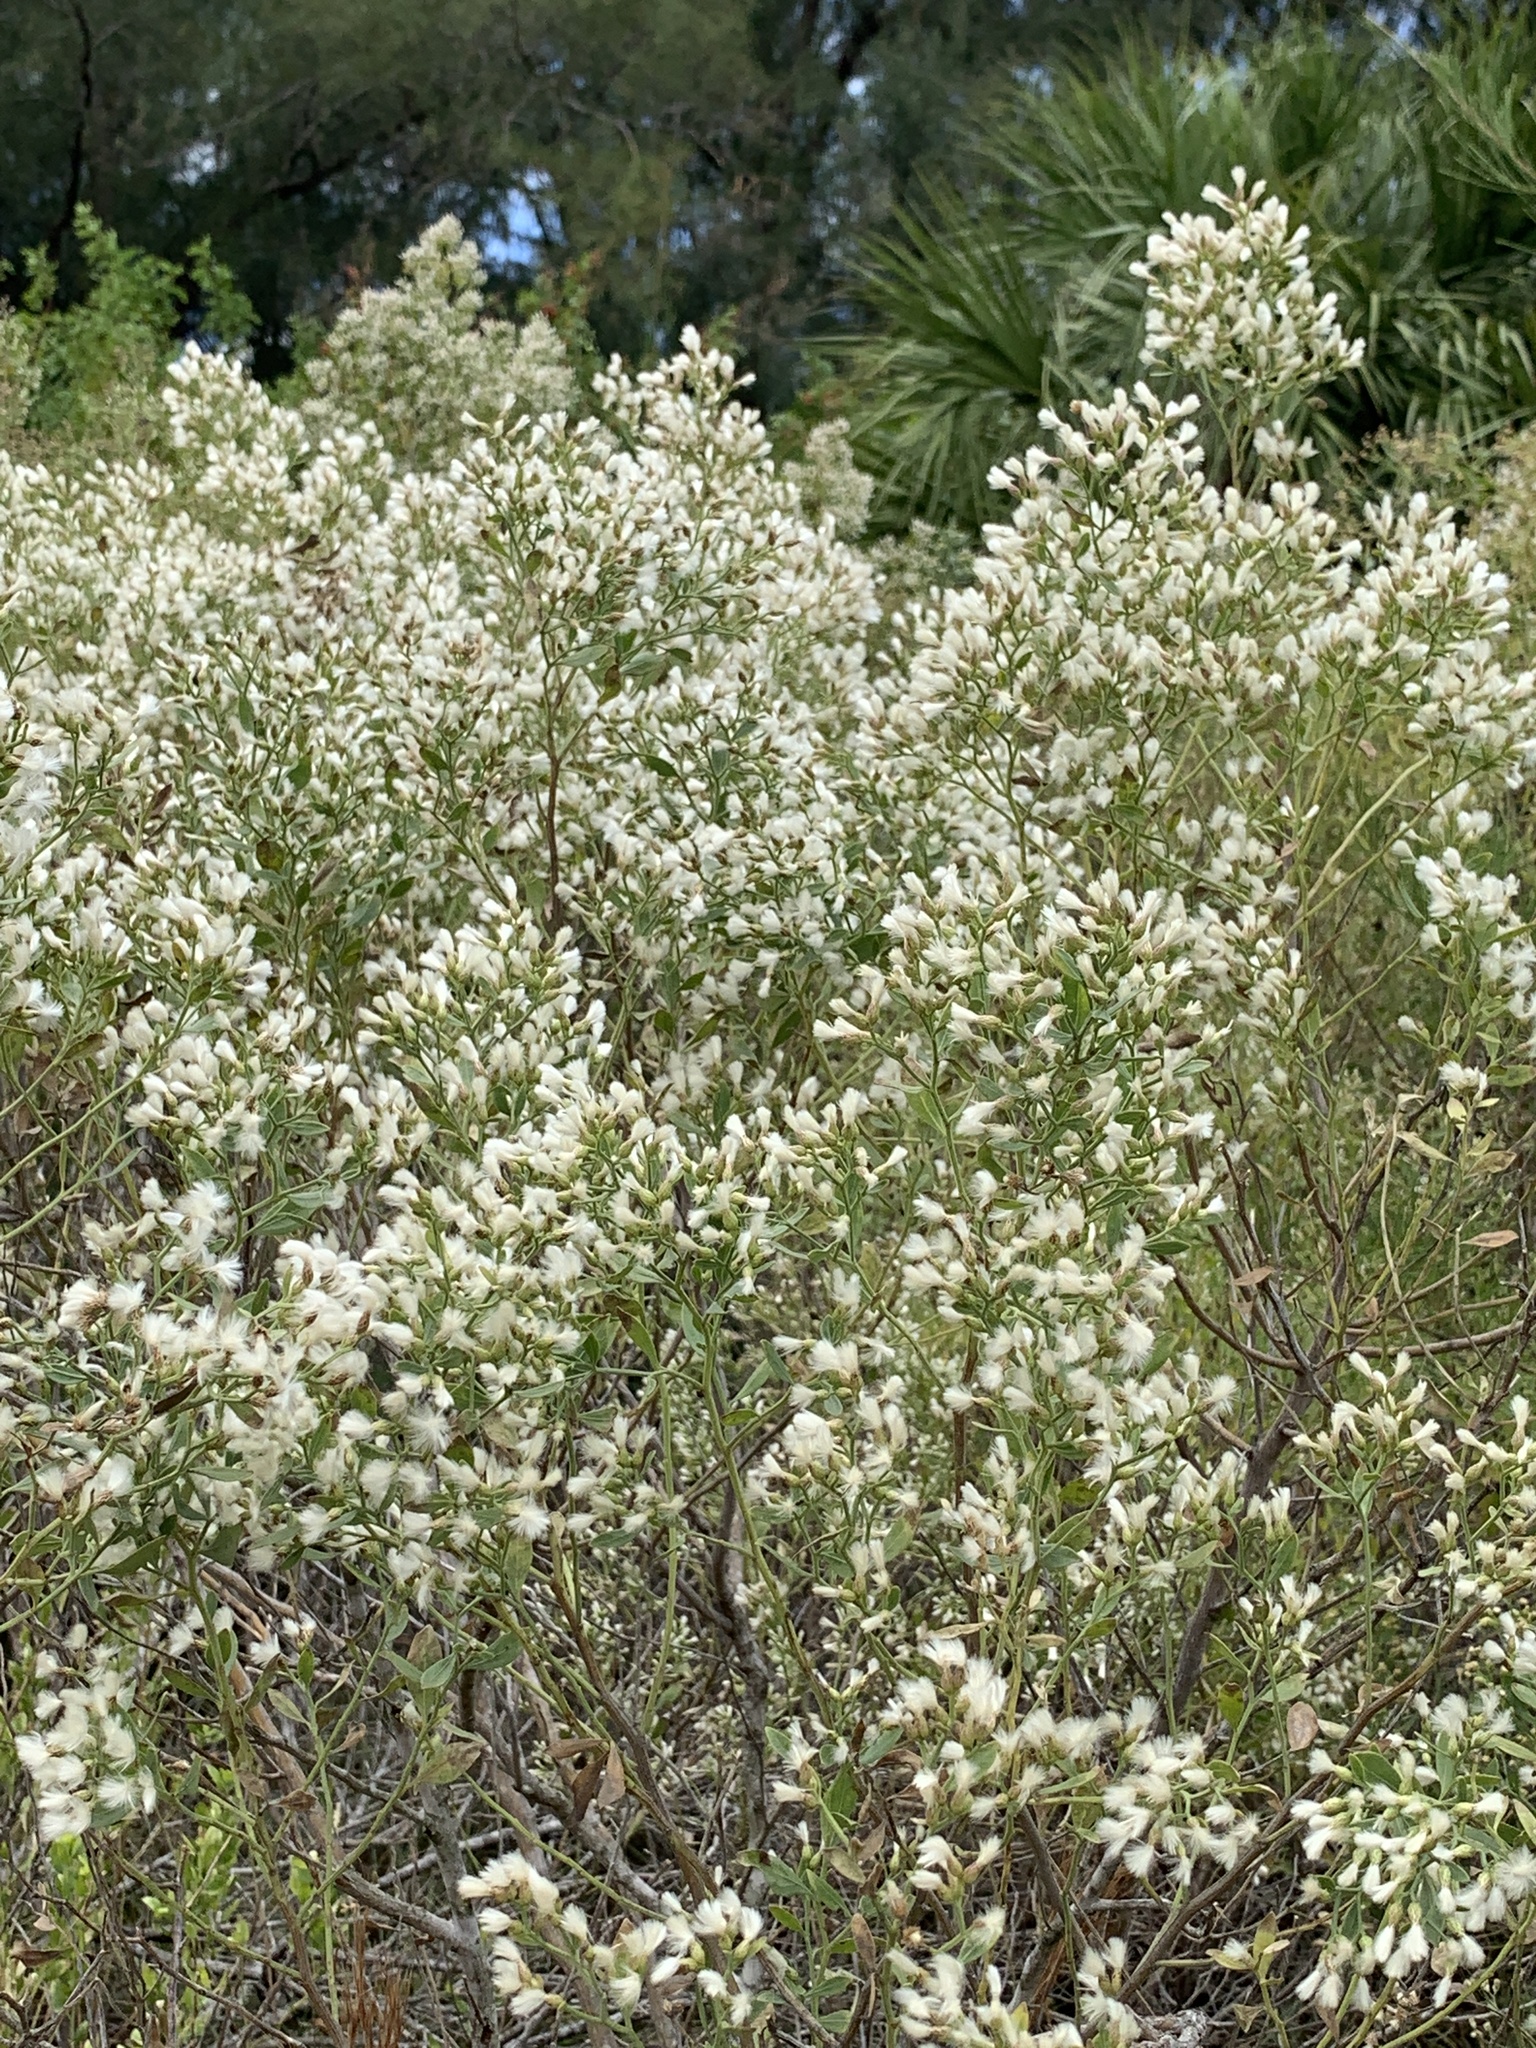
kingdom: Plantae
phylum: Tracheophyta
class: Magnoliopsida
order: Asterales
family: Asteraceae
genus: Baccharis
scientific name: Baccharis halimifolia
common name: Eastern baccharis
